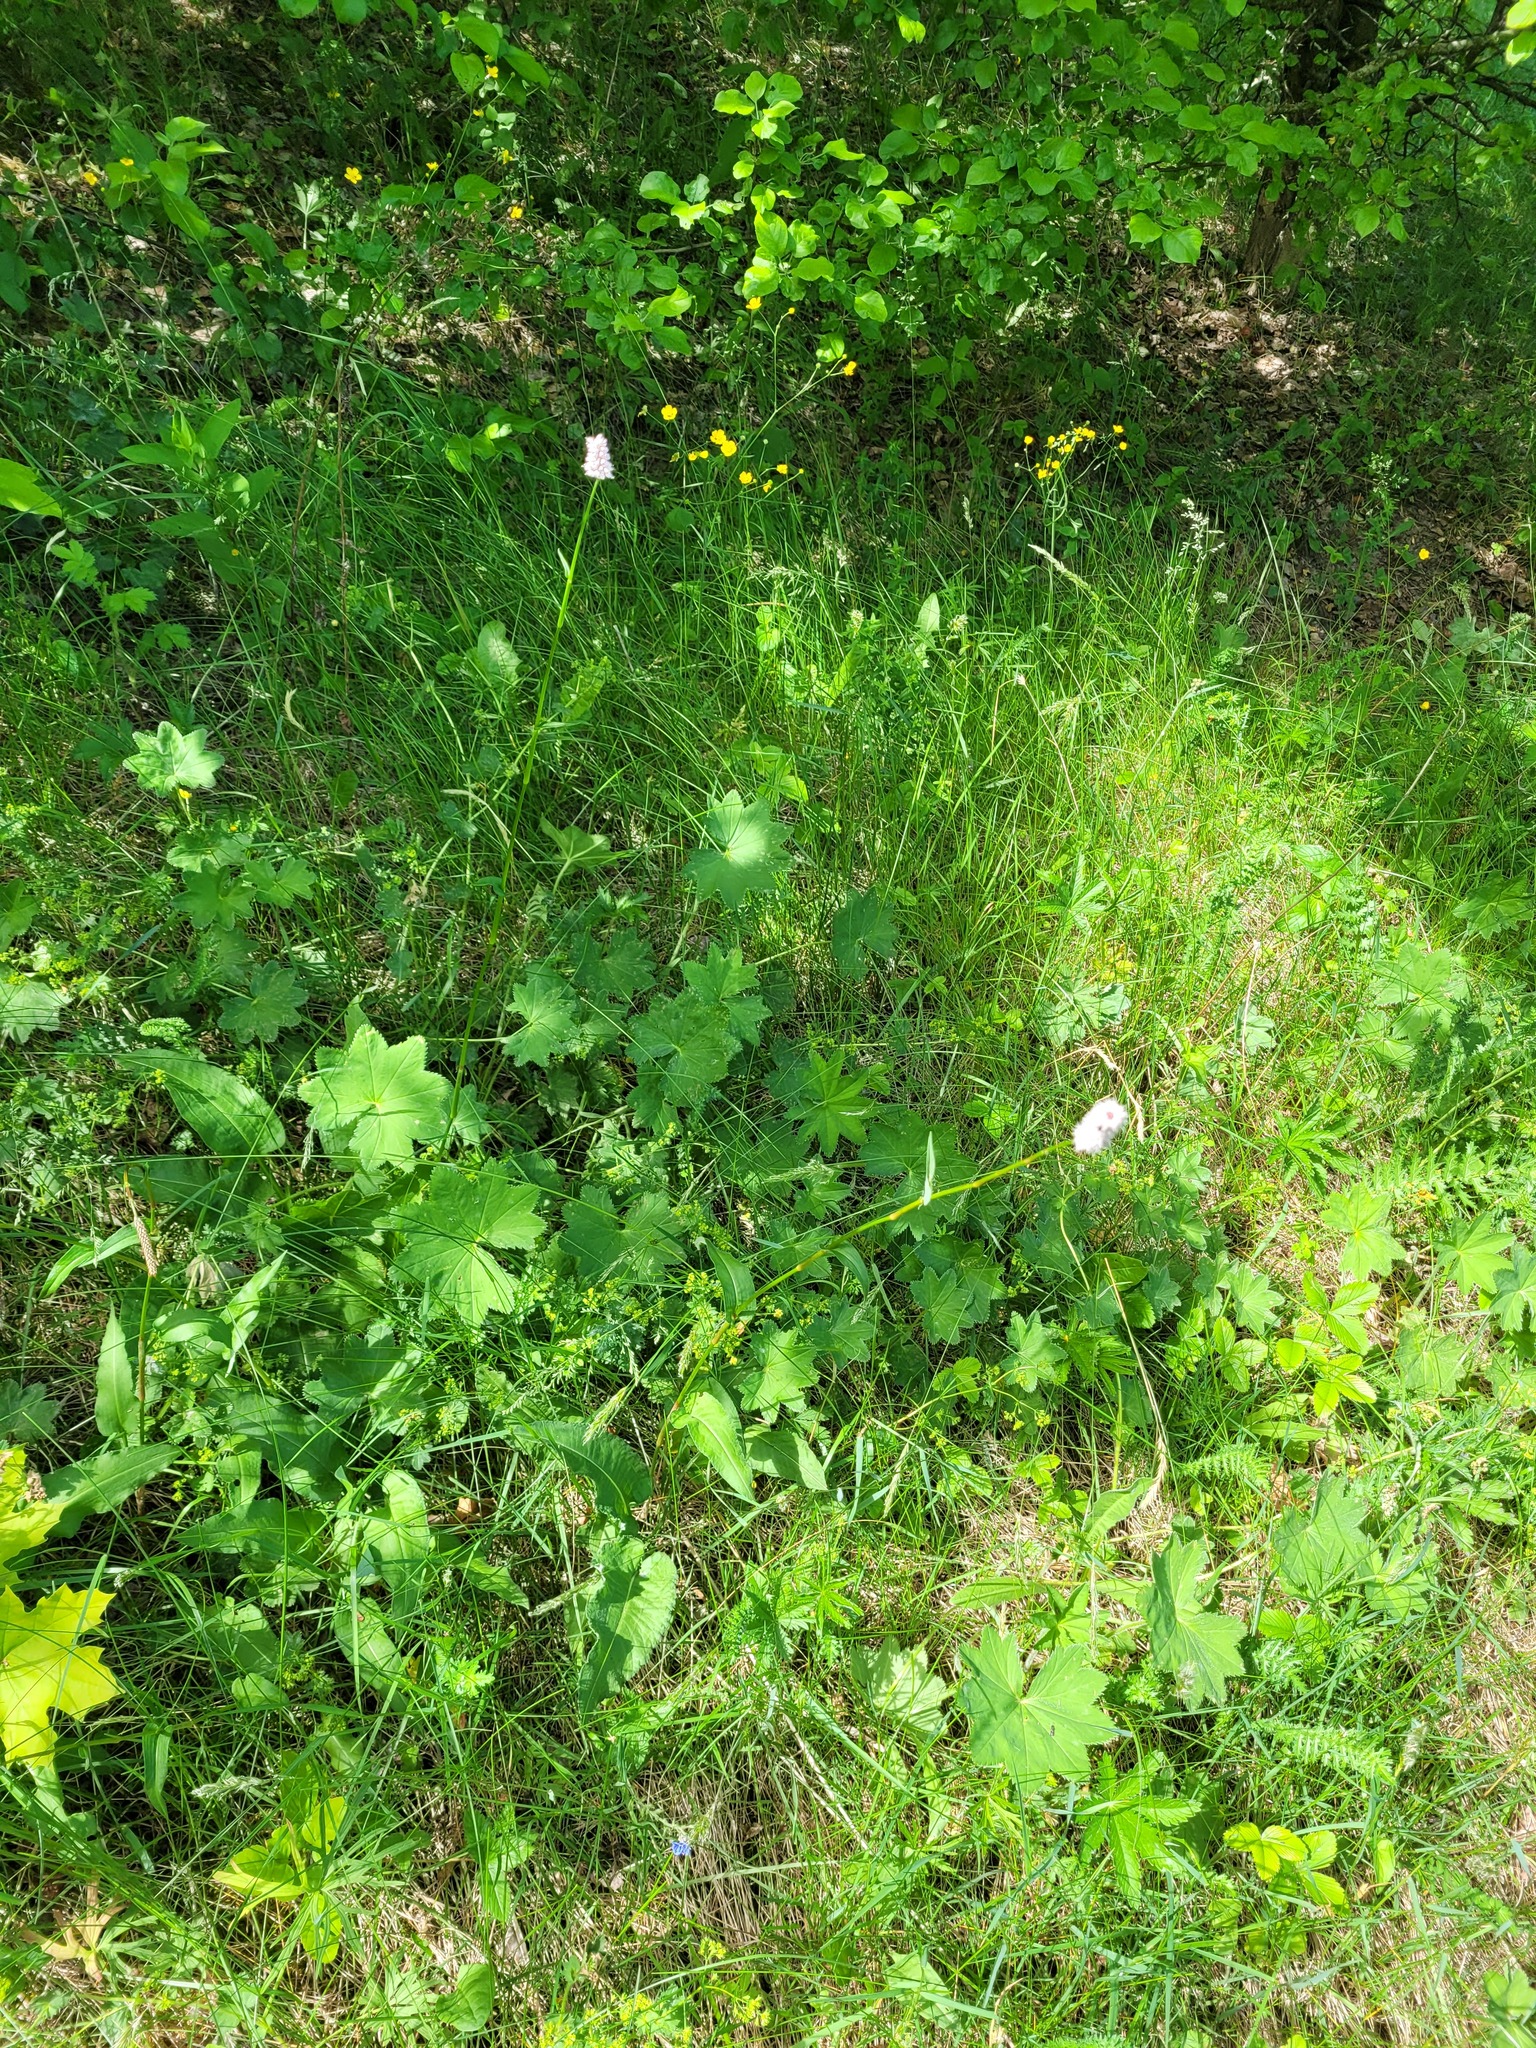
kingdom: Plantae
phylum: Tracheophyta
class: Magnoliopsida
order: Caryophyllales
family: Polygonaceae
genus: Bistorta
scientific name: Bistorta officinalis
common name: Common bistort
